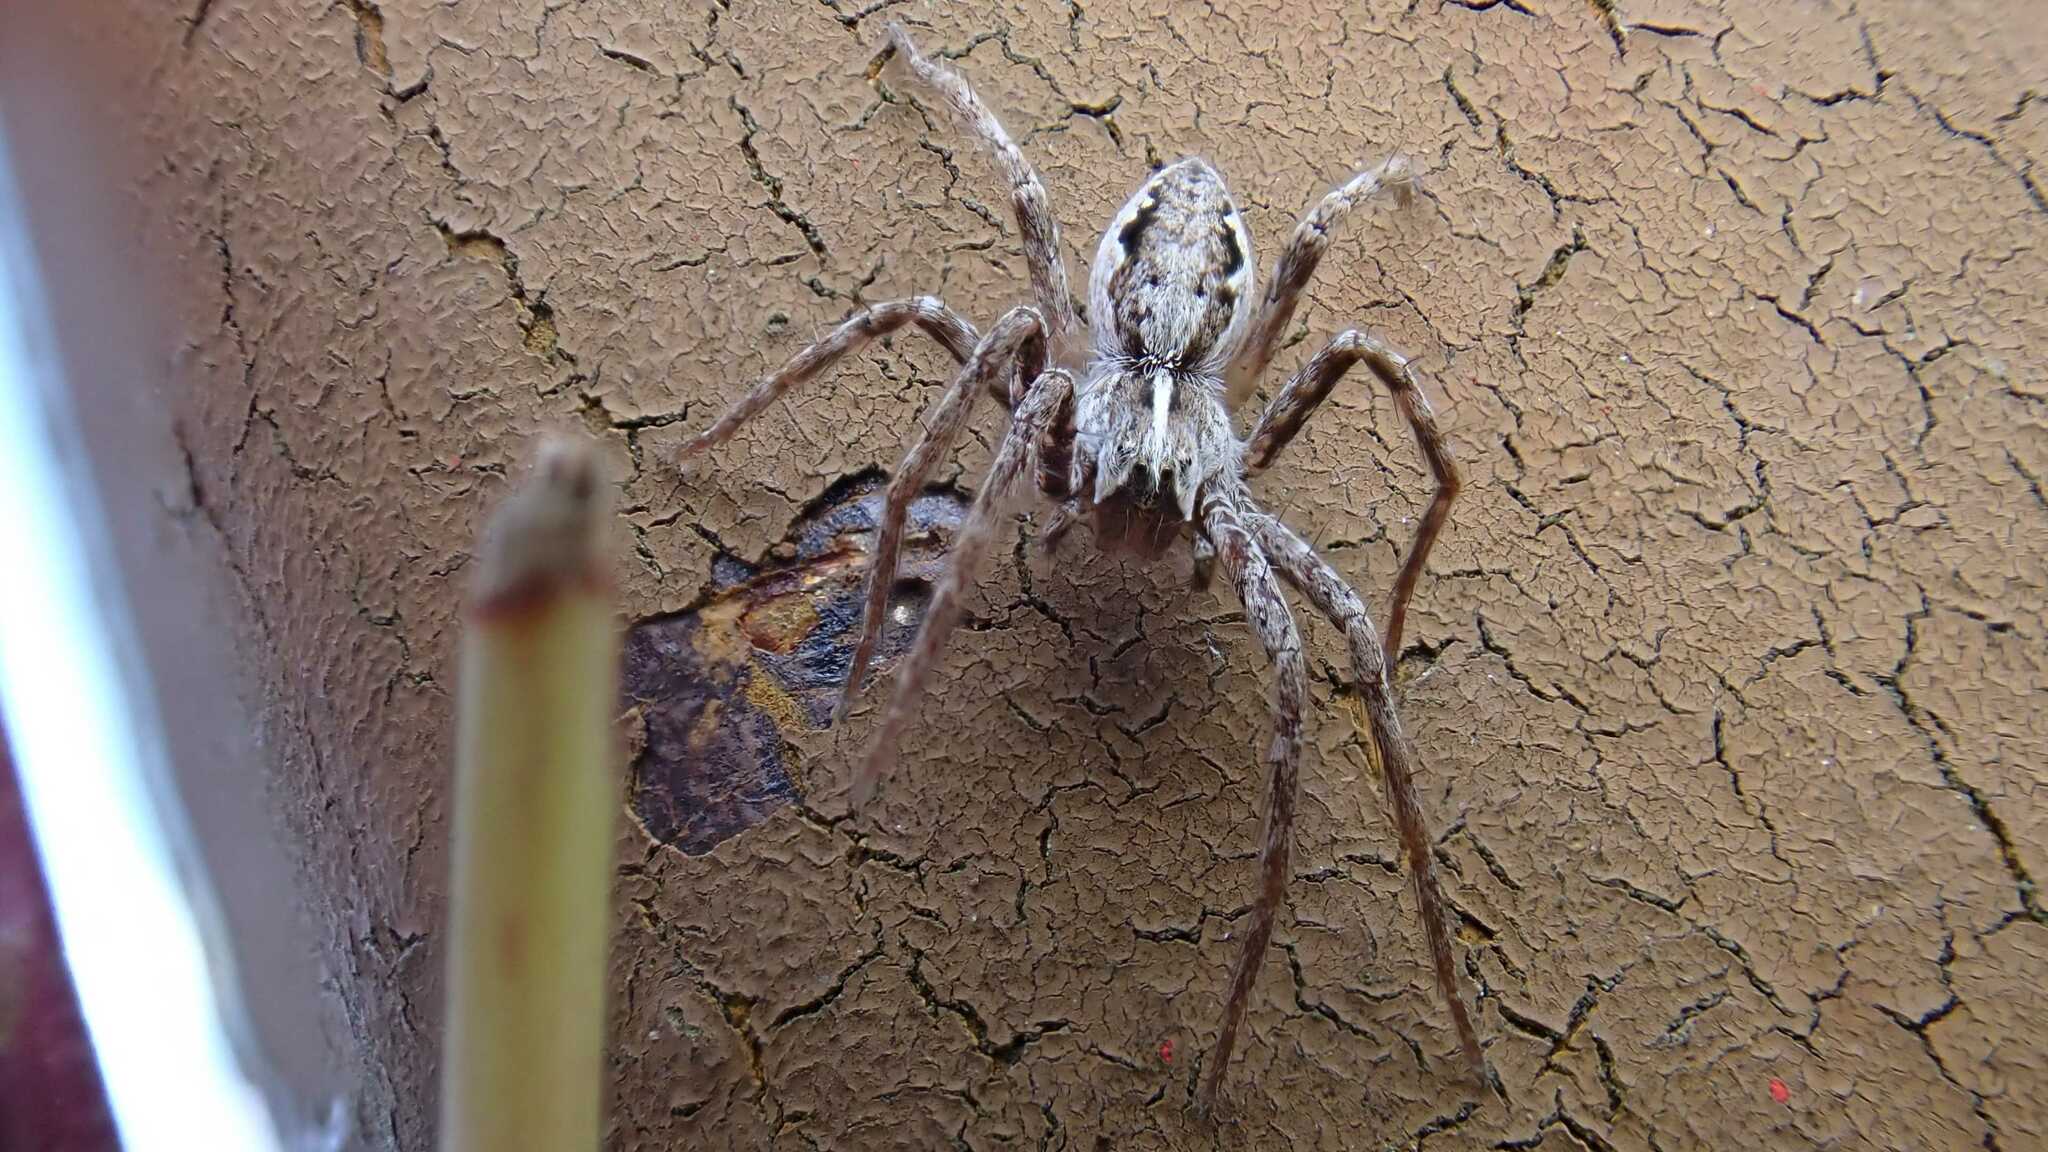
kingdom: Animalia
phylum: Arthropoda
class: Arachnida
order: Araneae
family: Pisauridae
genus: Pisaura
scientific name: Pisaura mirabilis
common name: Tent spider
